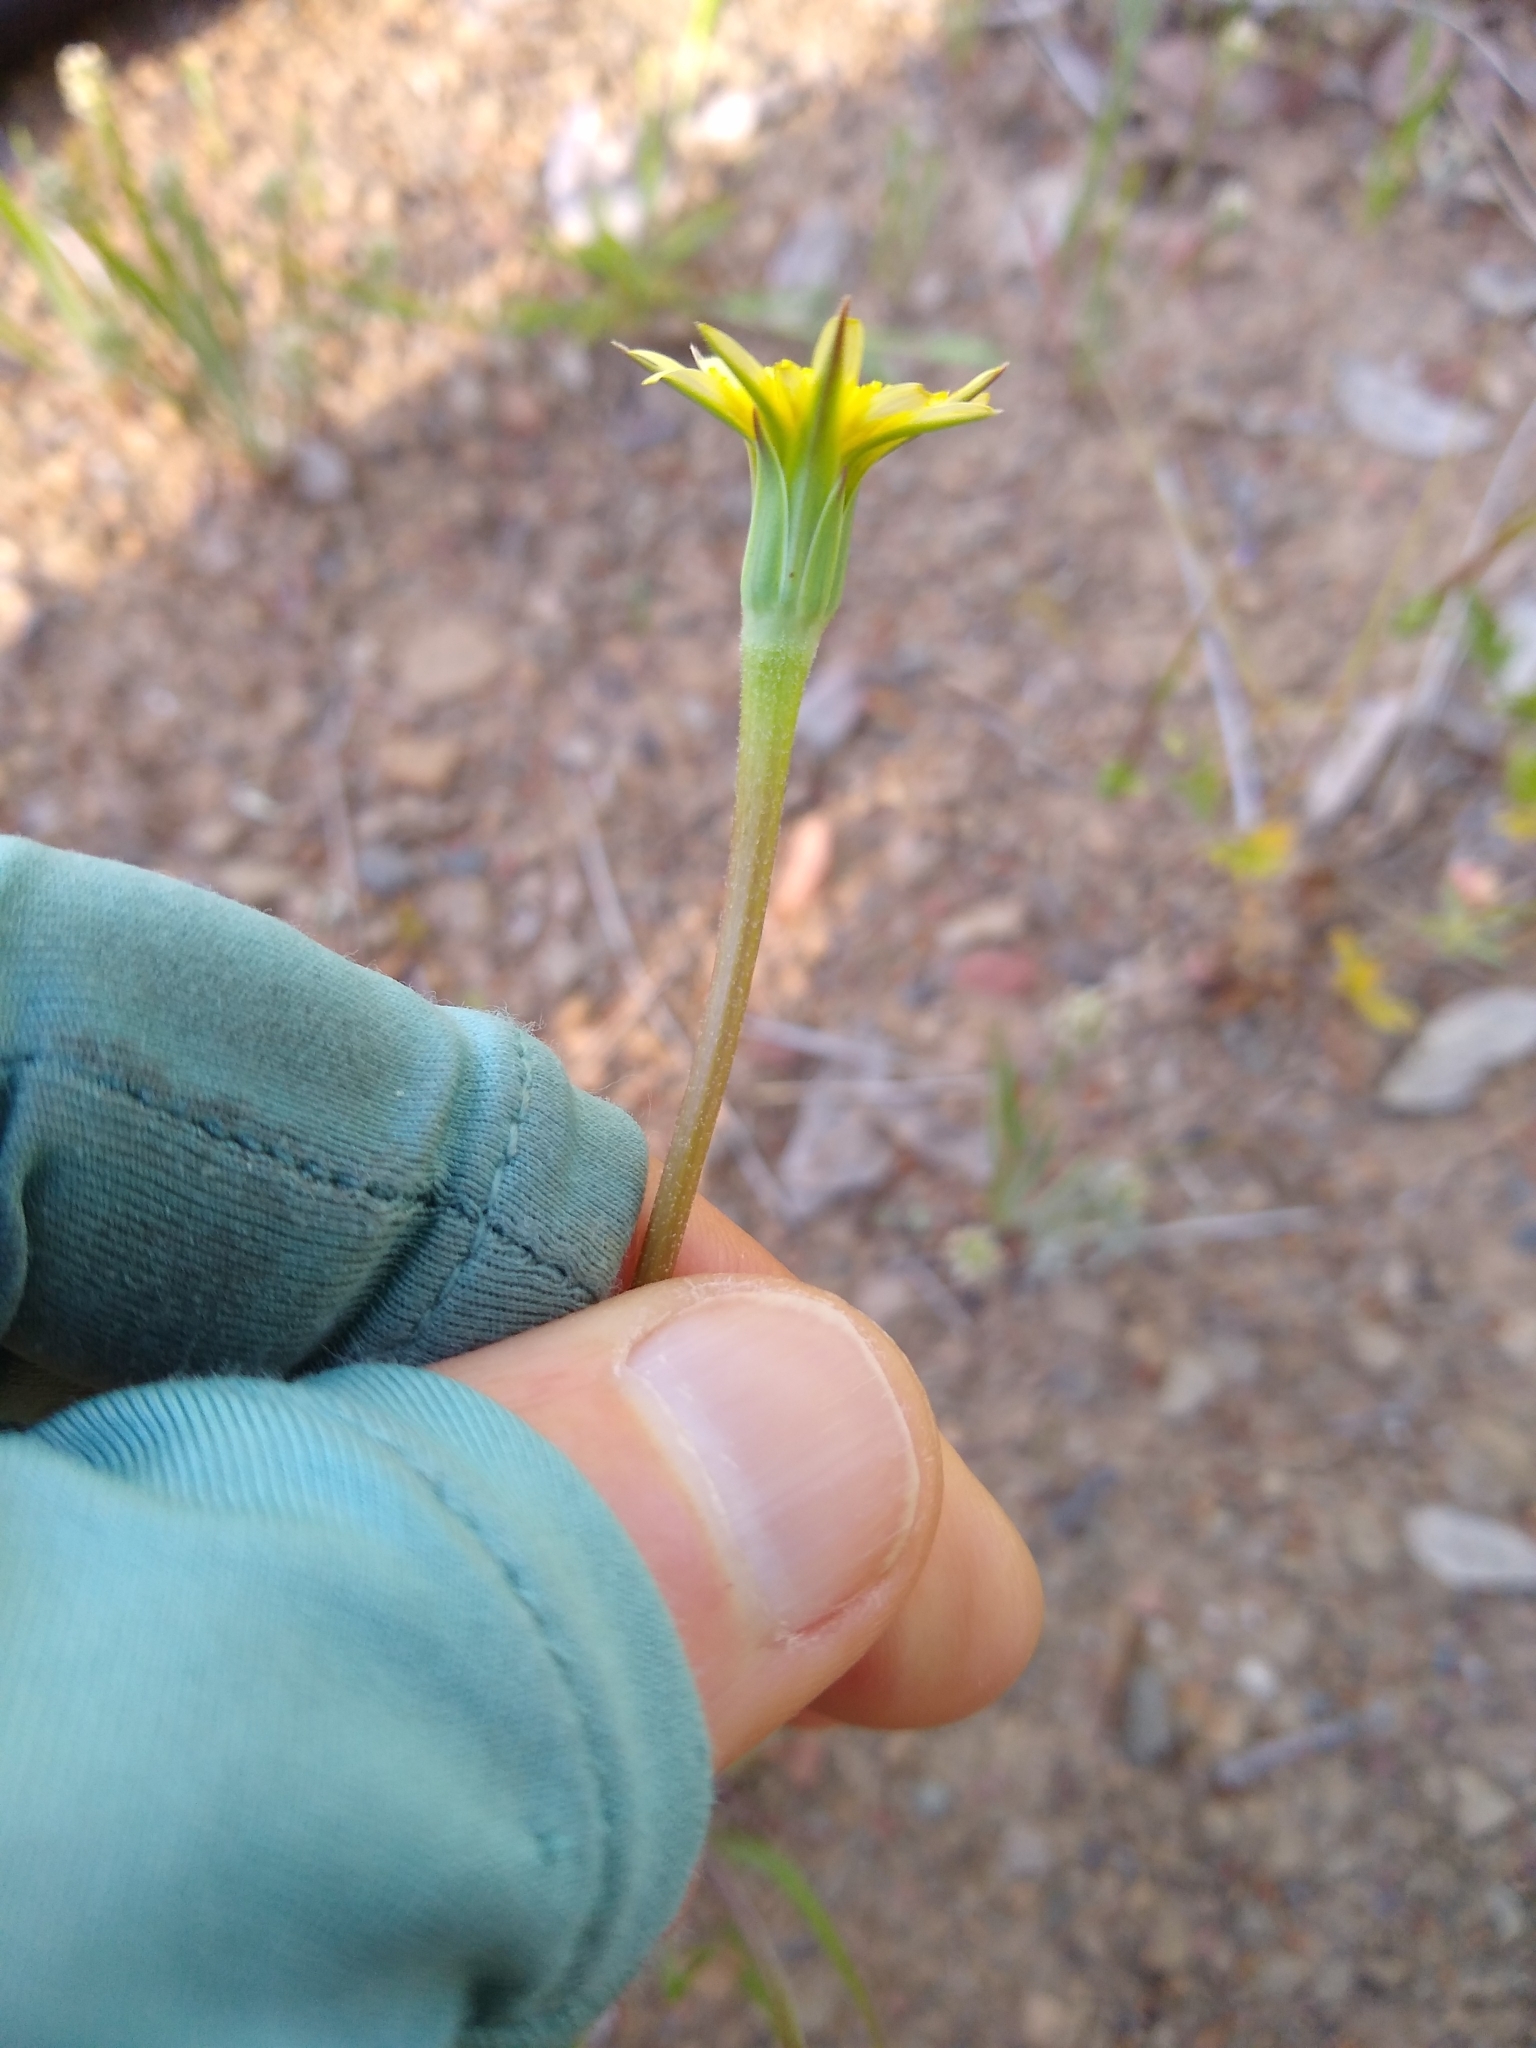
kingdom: Plantae
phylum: Tracheophyta
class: Magnoliopsida
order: Asterales
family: Asteraceae
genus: Microseris
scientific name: Microseris lindleyi
